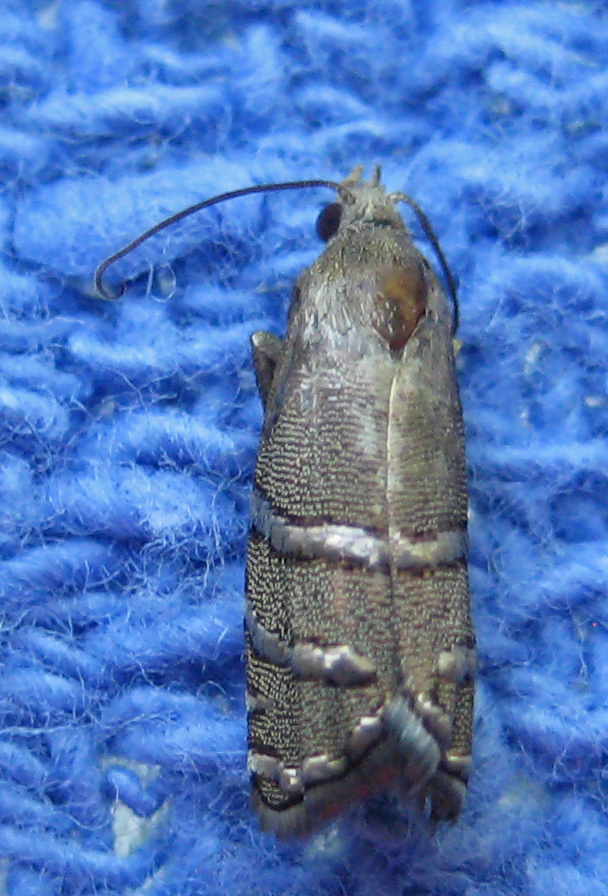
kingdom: Animalia
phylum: Arthropoda
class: Insecta
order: Lepidoptera
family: Tortricidae
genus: Cydia
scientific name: Cydia toreuta
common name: Eastern pine seedworm moth
